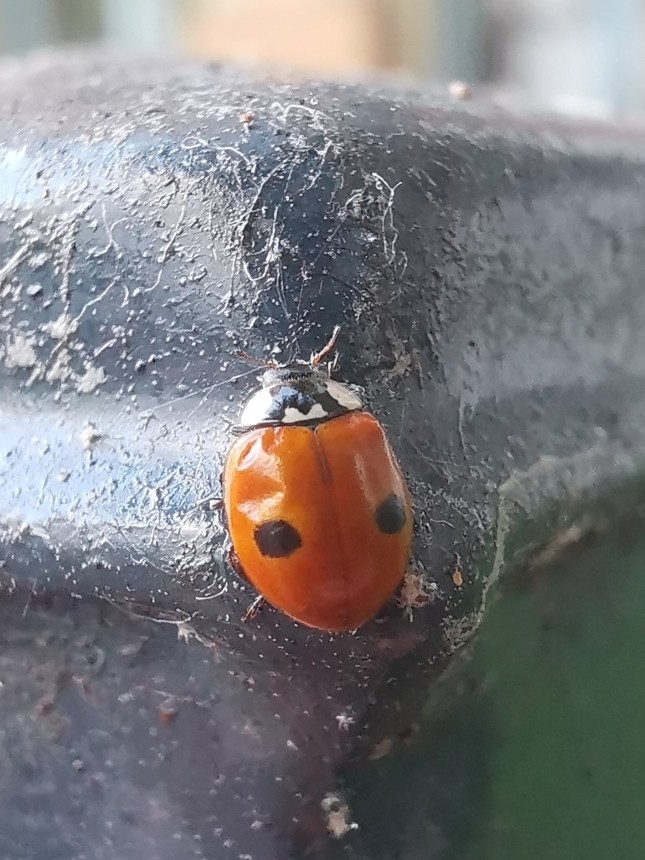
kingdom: Animalia
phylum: Arthropoda
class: Insecta
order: Coleoptera
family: Coccinellidae
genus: Adalia
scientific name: Adalia bipunctata
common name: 2-spot ladybird
